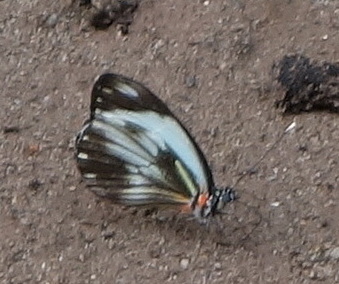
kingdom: Animalia
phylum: Arthropoda
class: Insecta
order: Lepidoptera
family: Pieridae
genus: Pieriballia
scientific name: Pieriballia viardi
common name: Painted white
